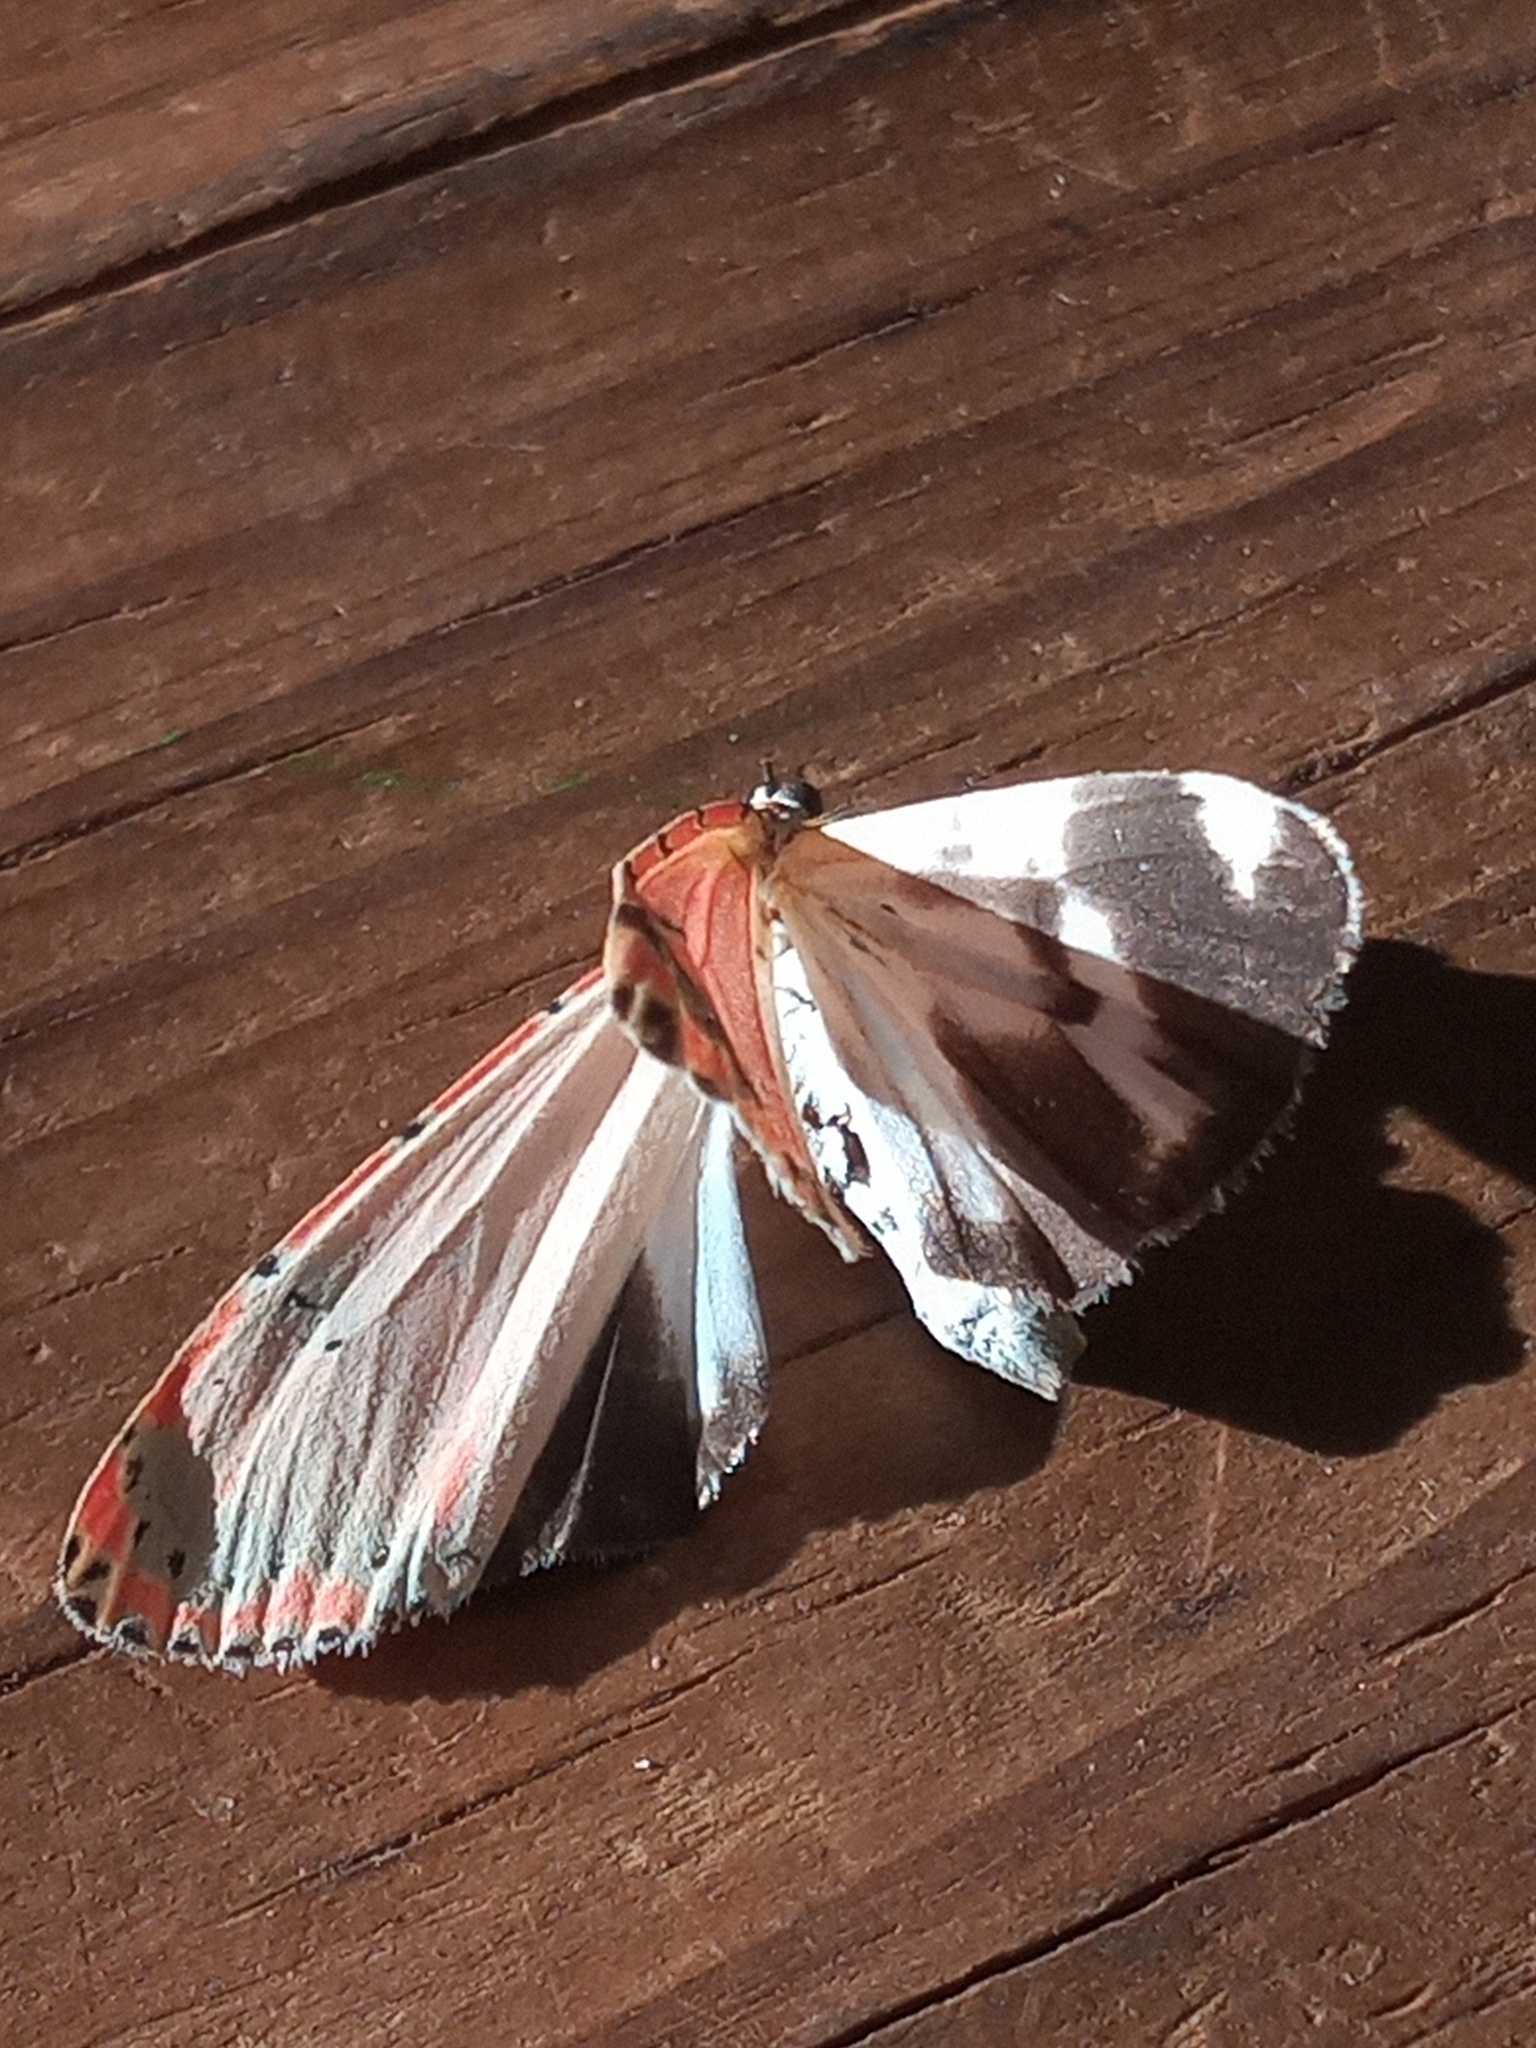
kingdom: Animalia
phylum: Arthropoda
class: Insecta
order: Lepidoptera
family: Erebidae
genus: Utetheisa
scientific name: Utetheisa ornatrix
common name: Beautiful utetheisa
